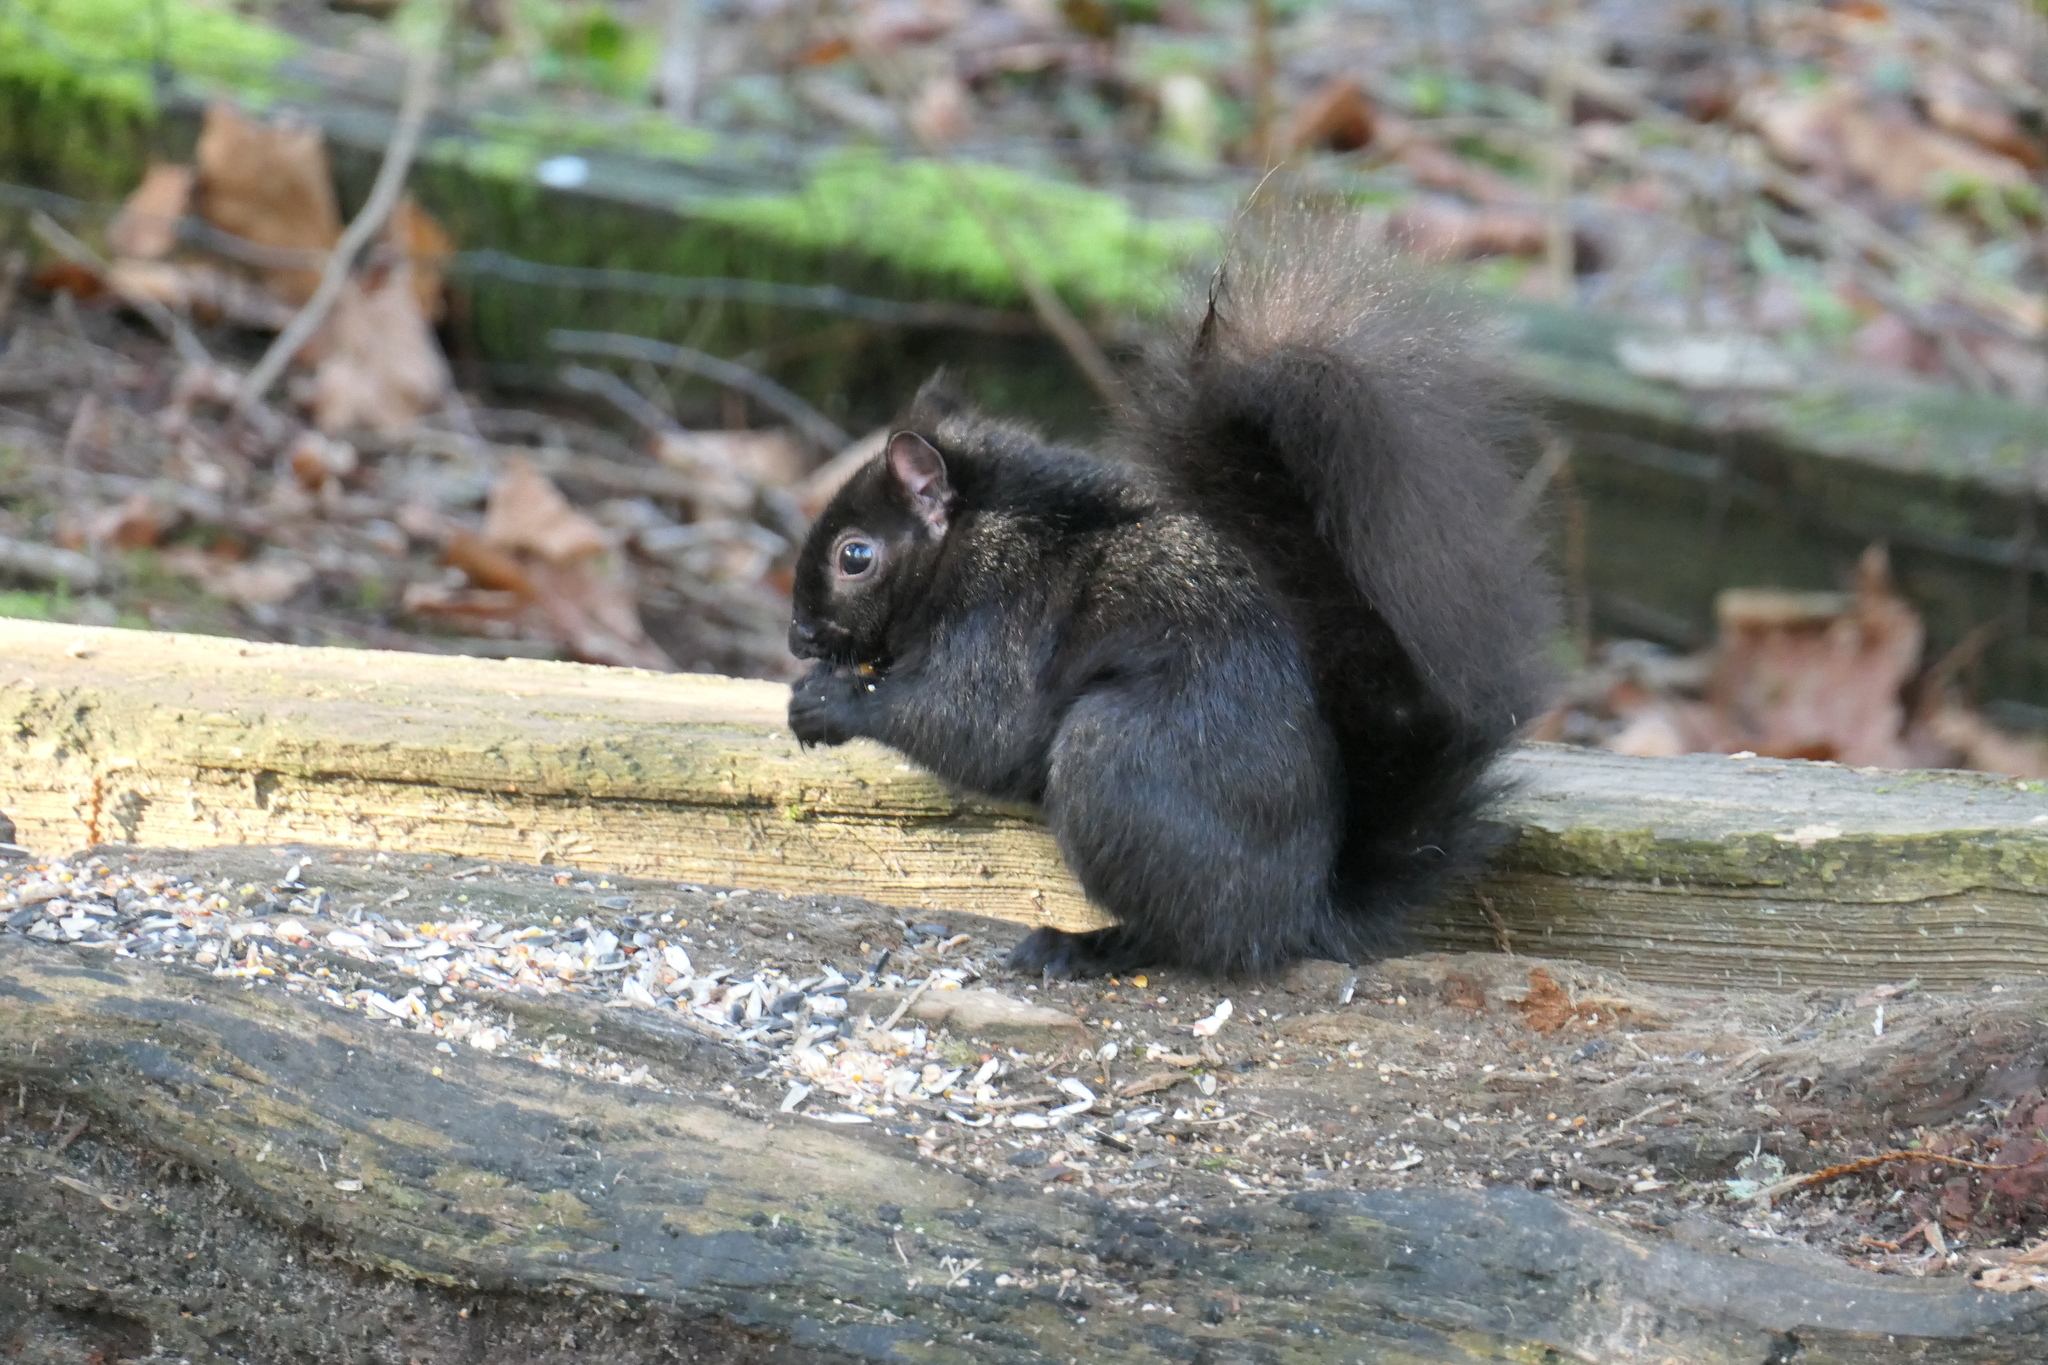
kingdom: Animalia
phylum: Chordata
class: Mammalia
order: Rodentia
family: Sciuridae
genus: Sciurus
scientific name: Sciurus carolinensis
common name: Eastern gray squirrel
